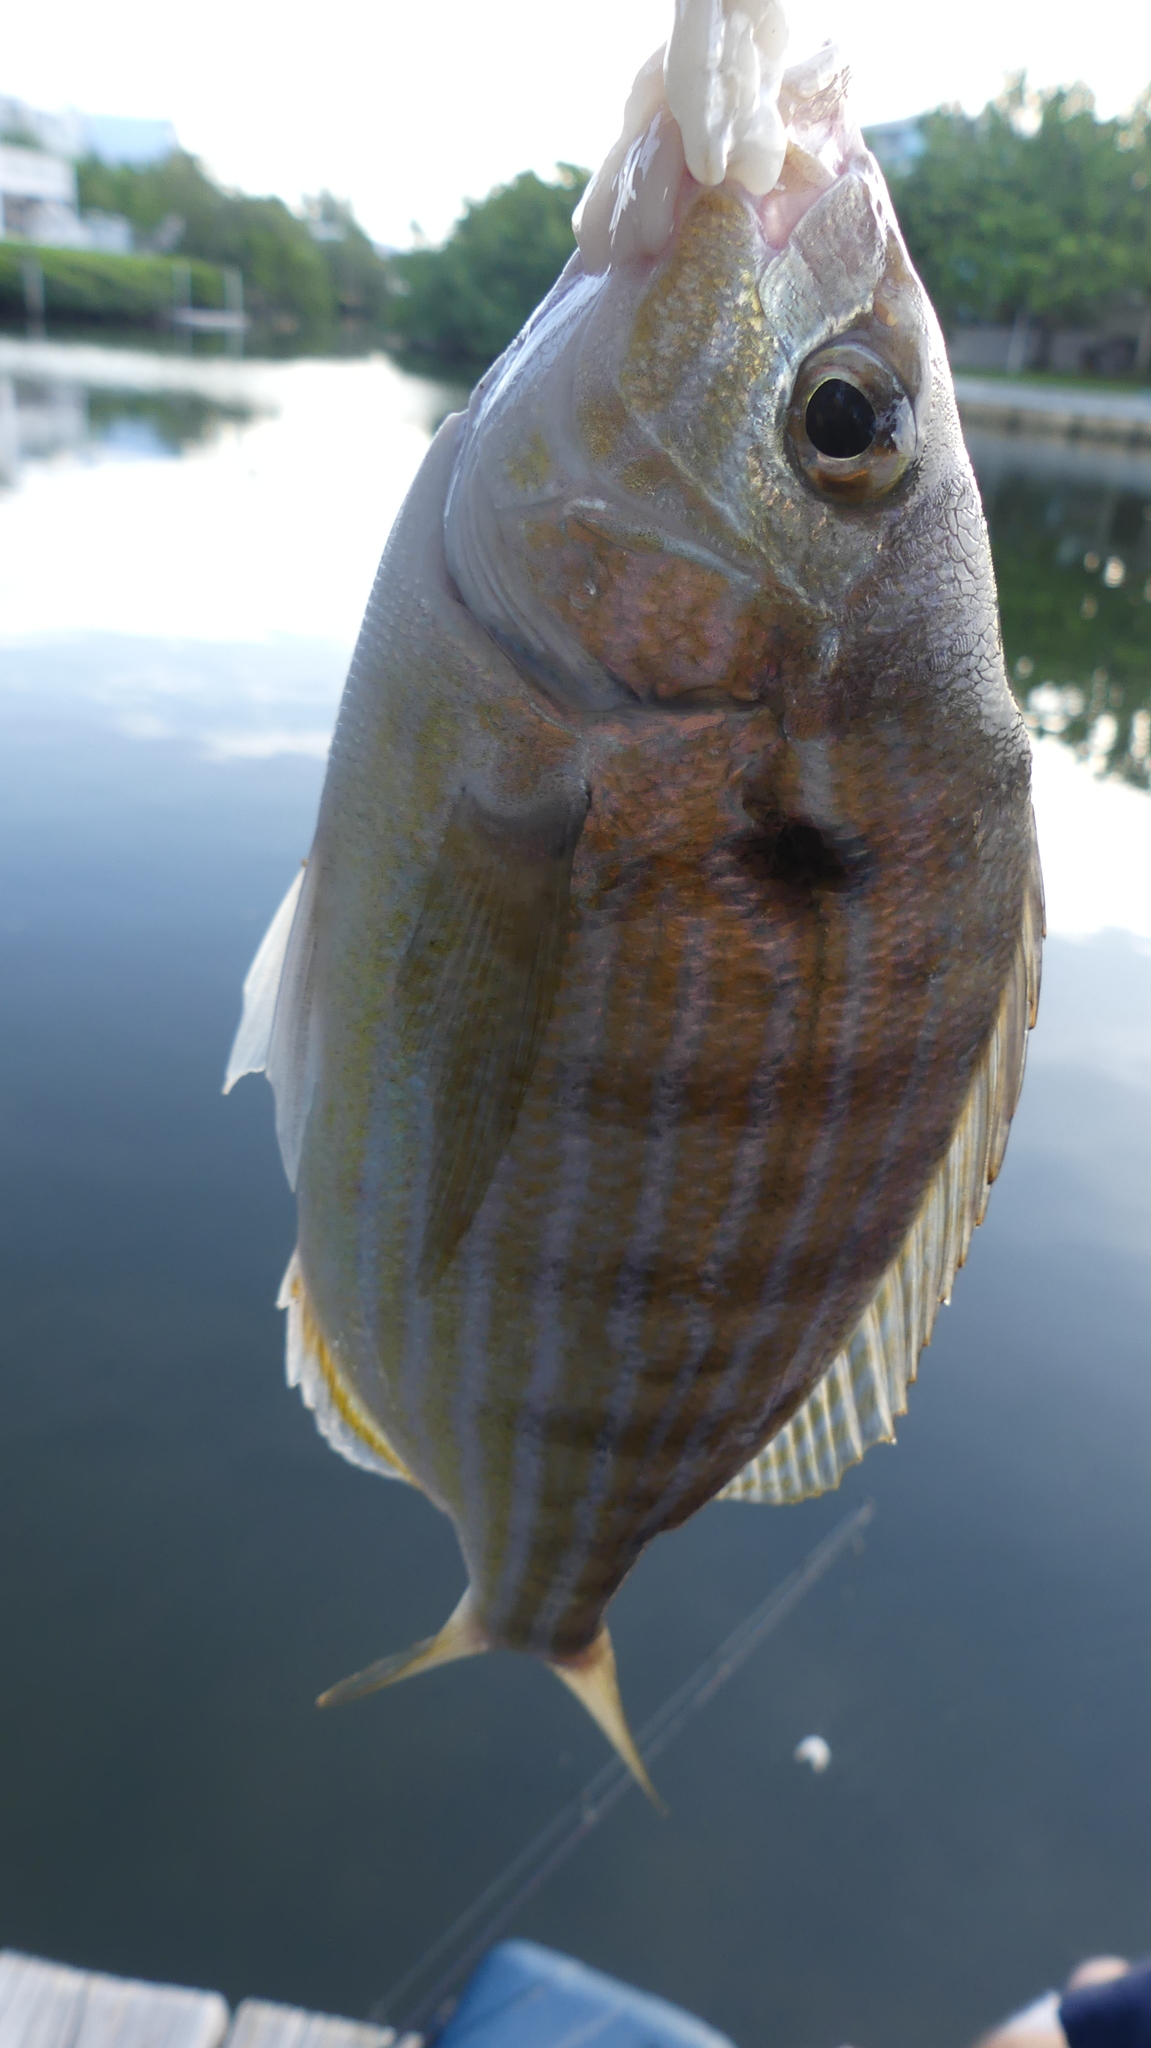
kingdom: Animalia
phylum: Chordata
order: Perciformes
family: Sparidae
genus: Lagodon
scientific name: Lagodon rhomboides
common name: Pinfish
